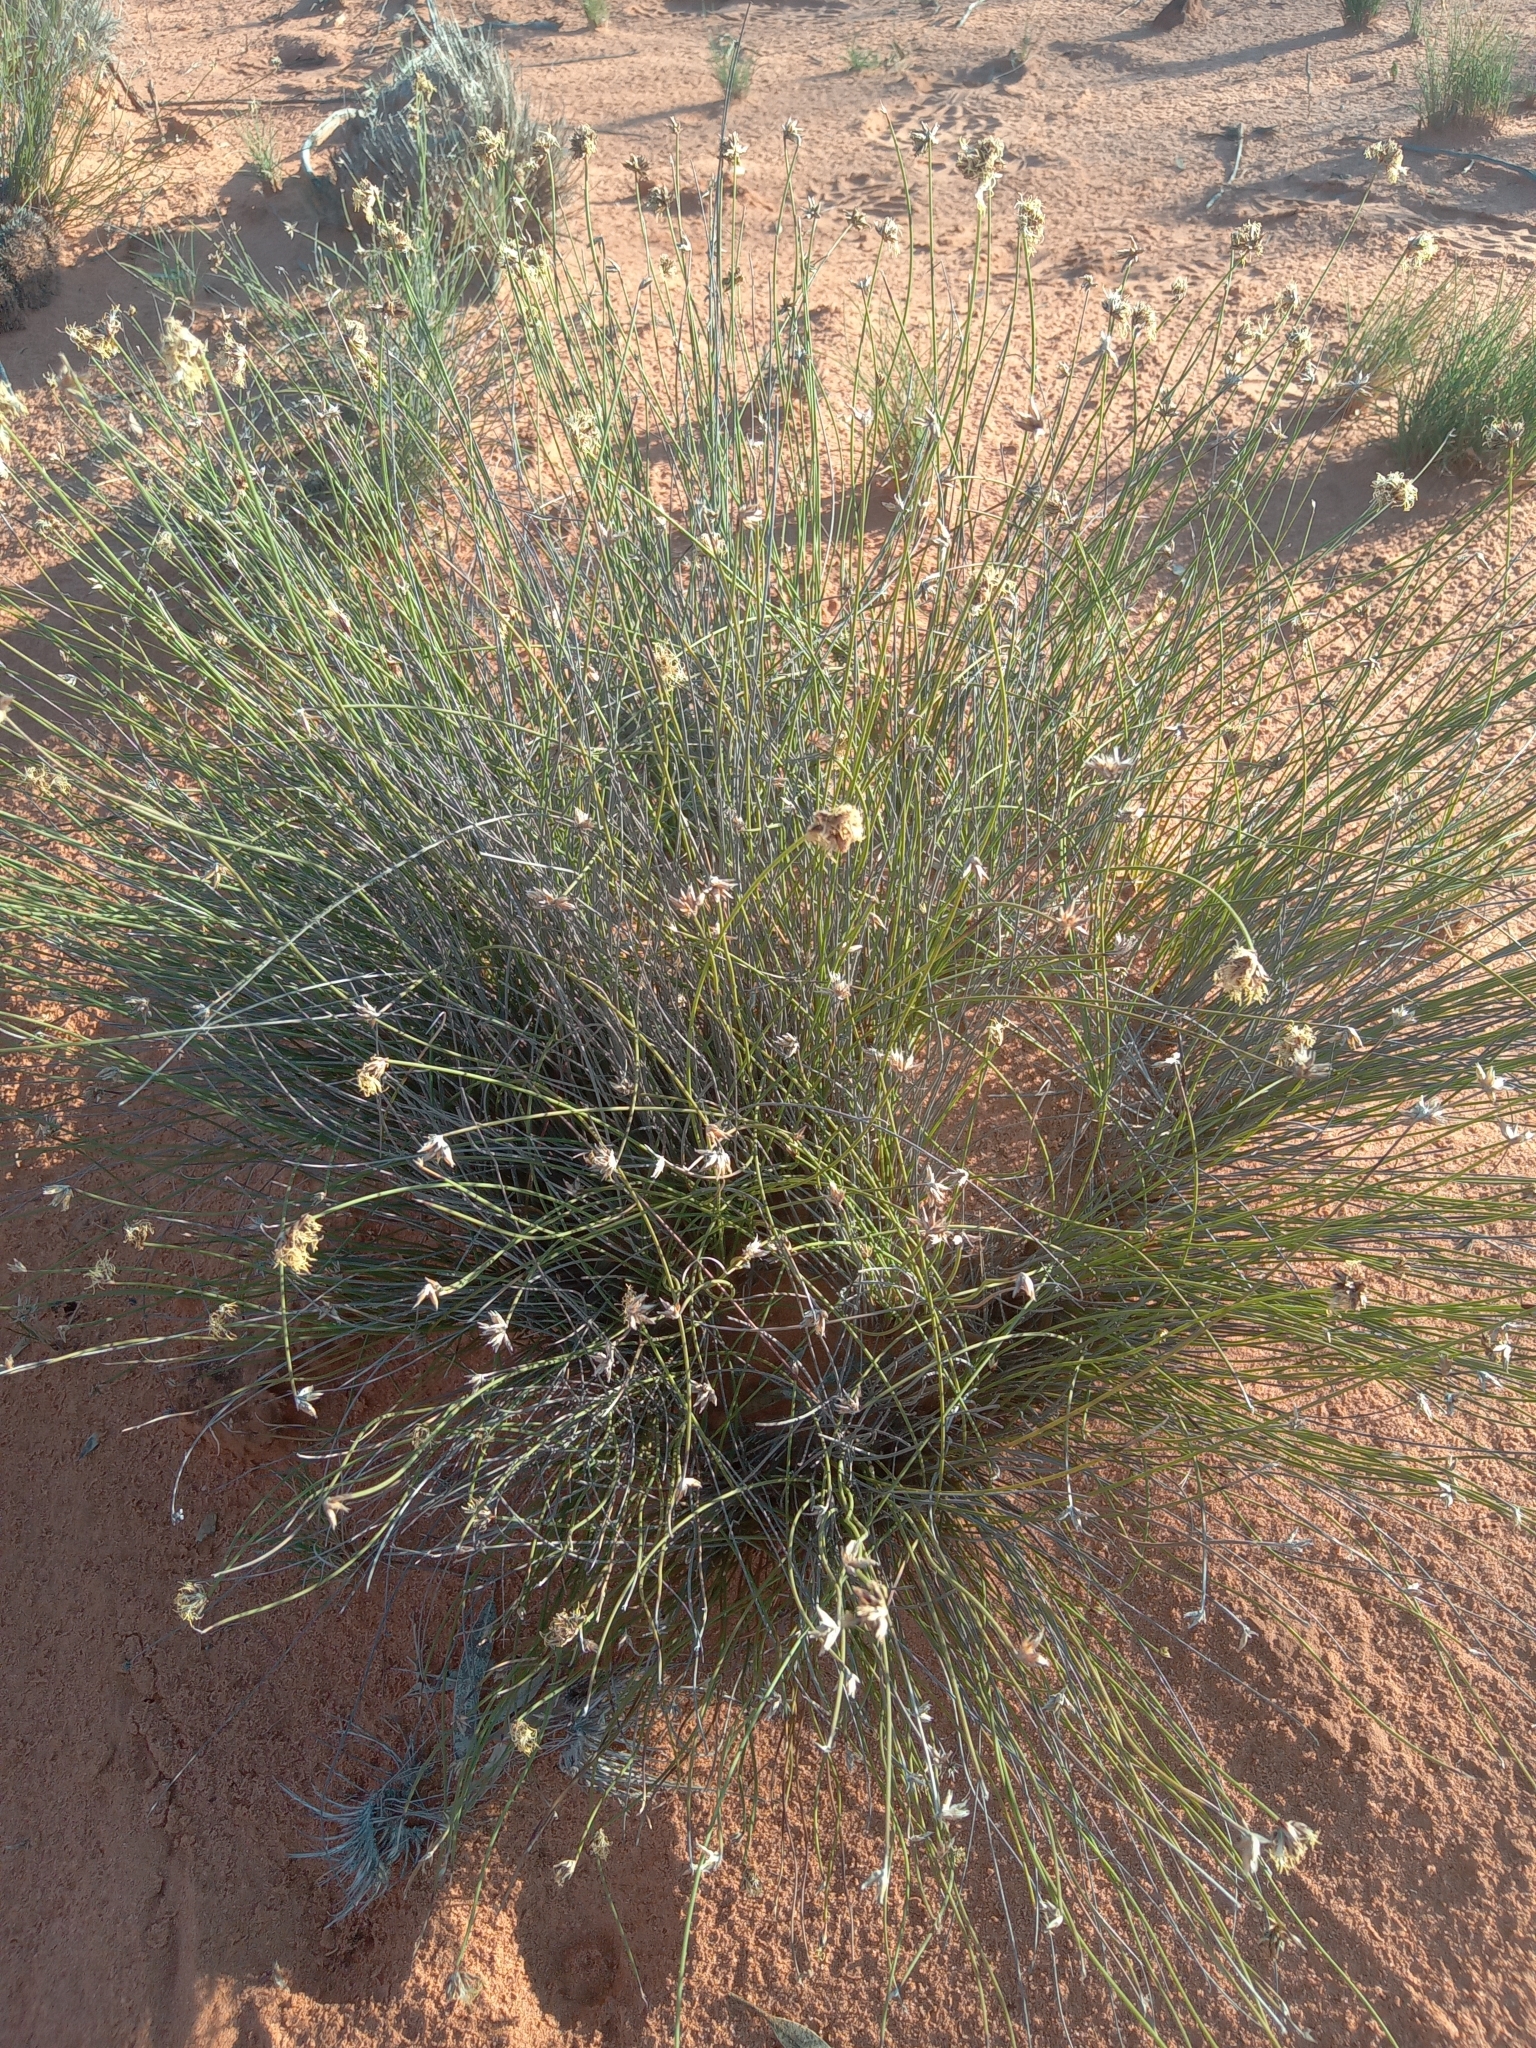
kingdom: Plantae
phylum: Tracheophyta
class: Liliopsida
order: Poales
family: Cyperaceae
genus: Schoenus
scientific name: Schoenus subaphyllus
